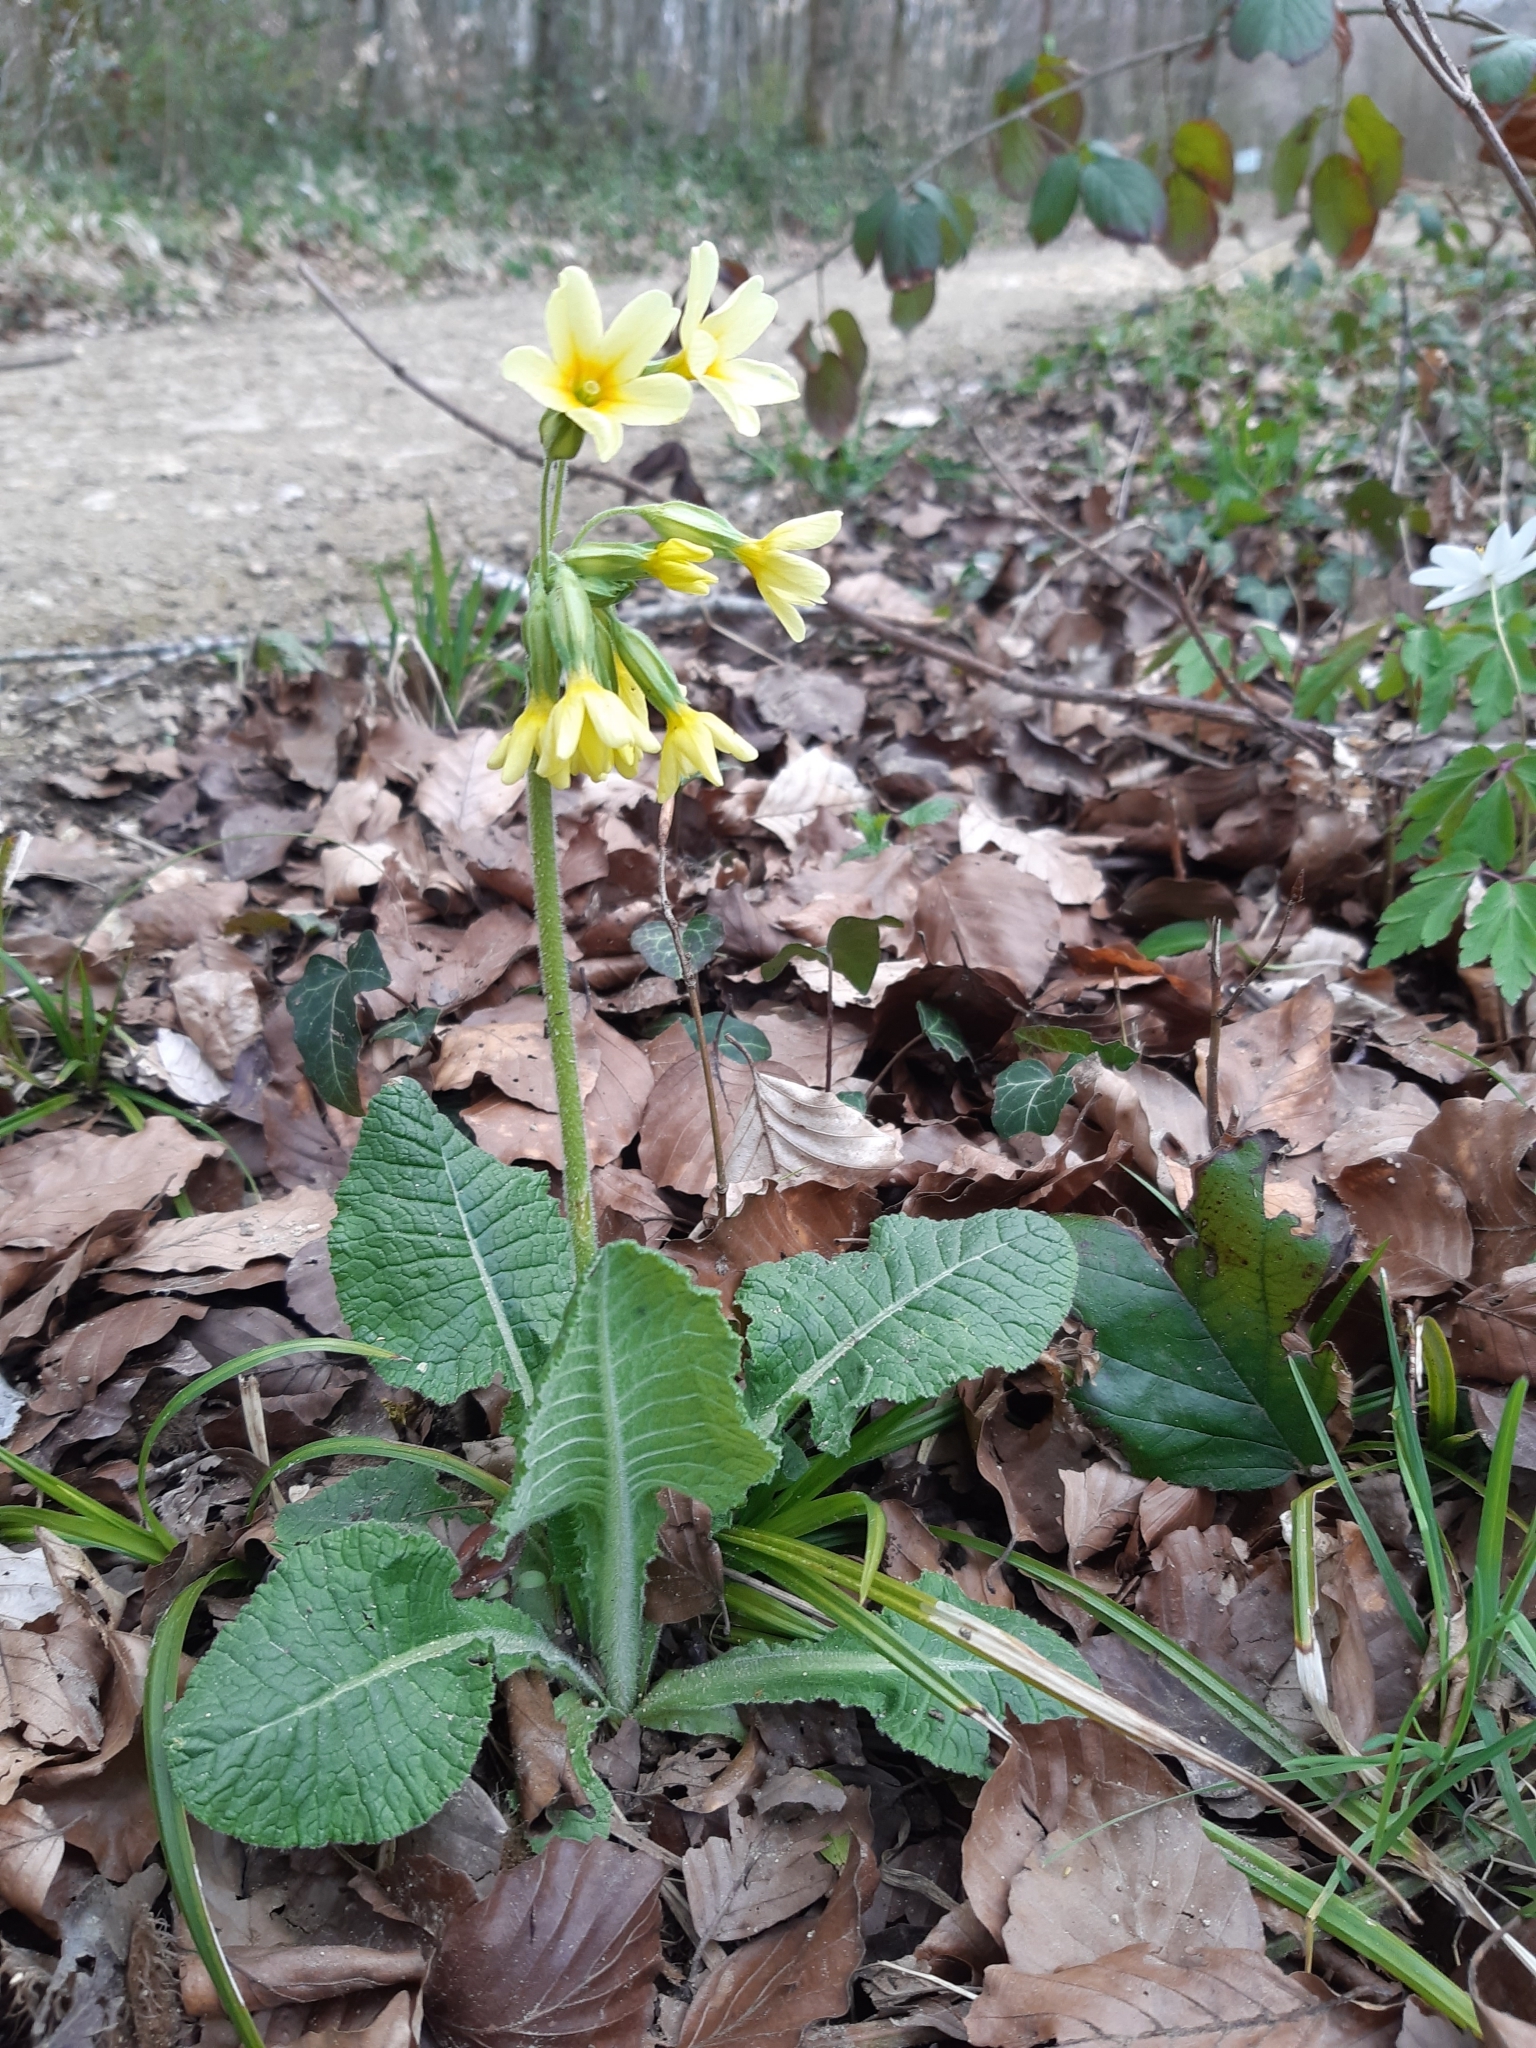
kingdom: Plantae
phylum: Tracheophyta
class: Magnoliopsida
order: Ericales
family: Primulaceae
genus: Primula
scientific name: Primula elatior
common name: Oxlip
